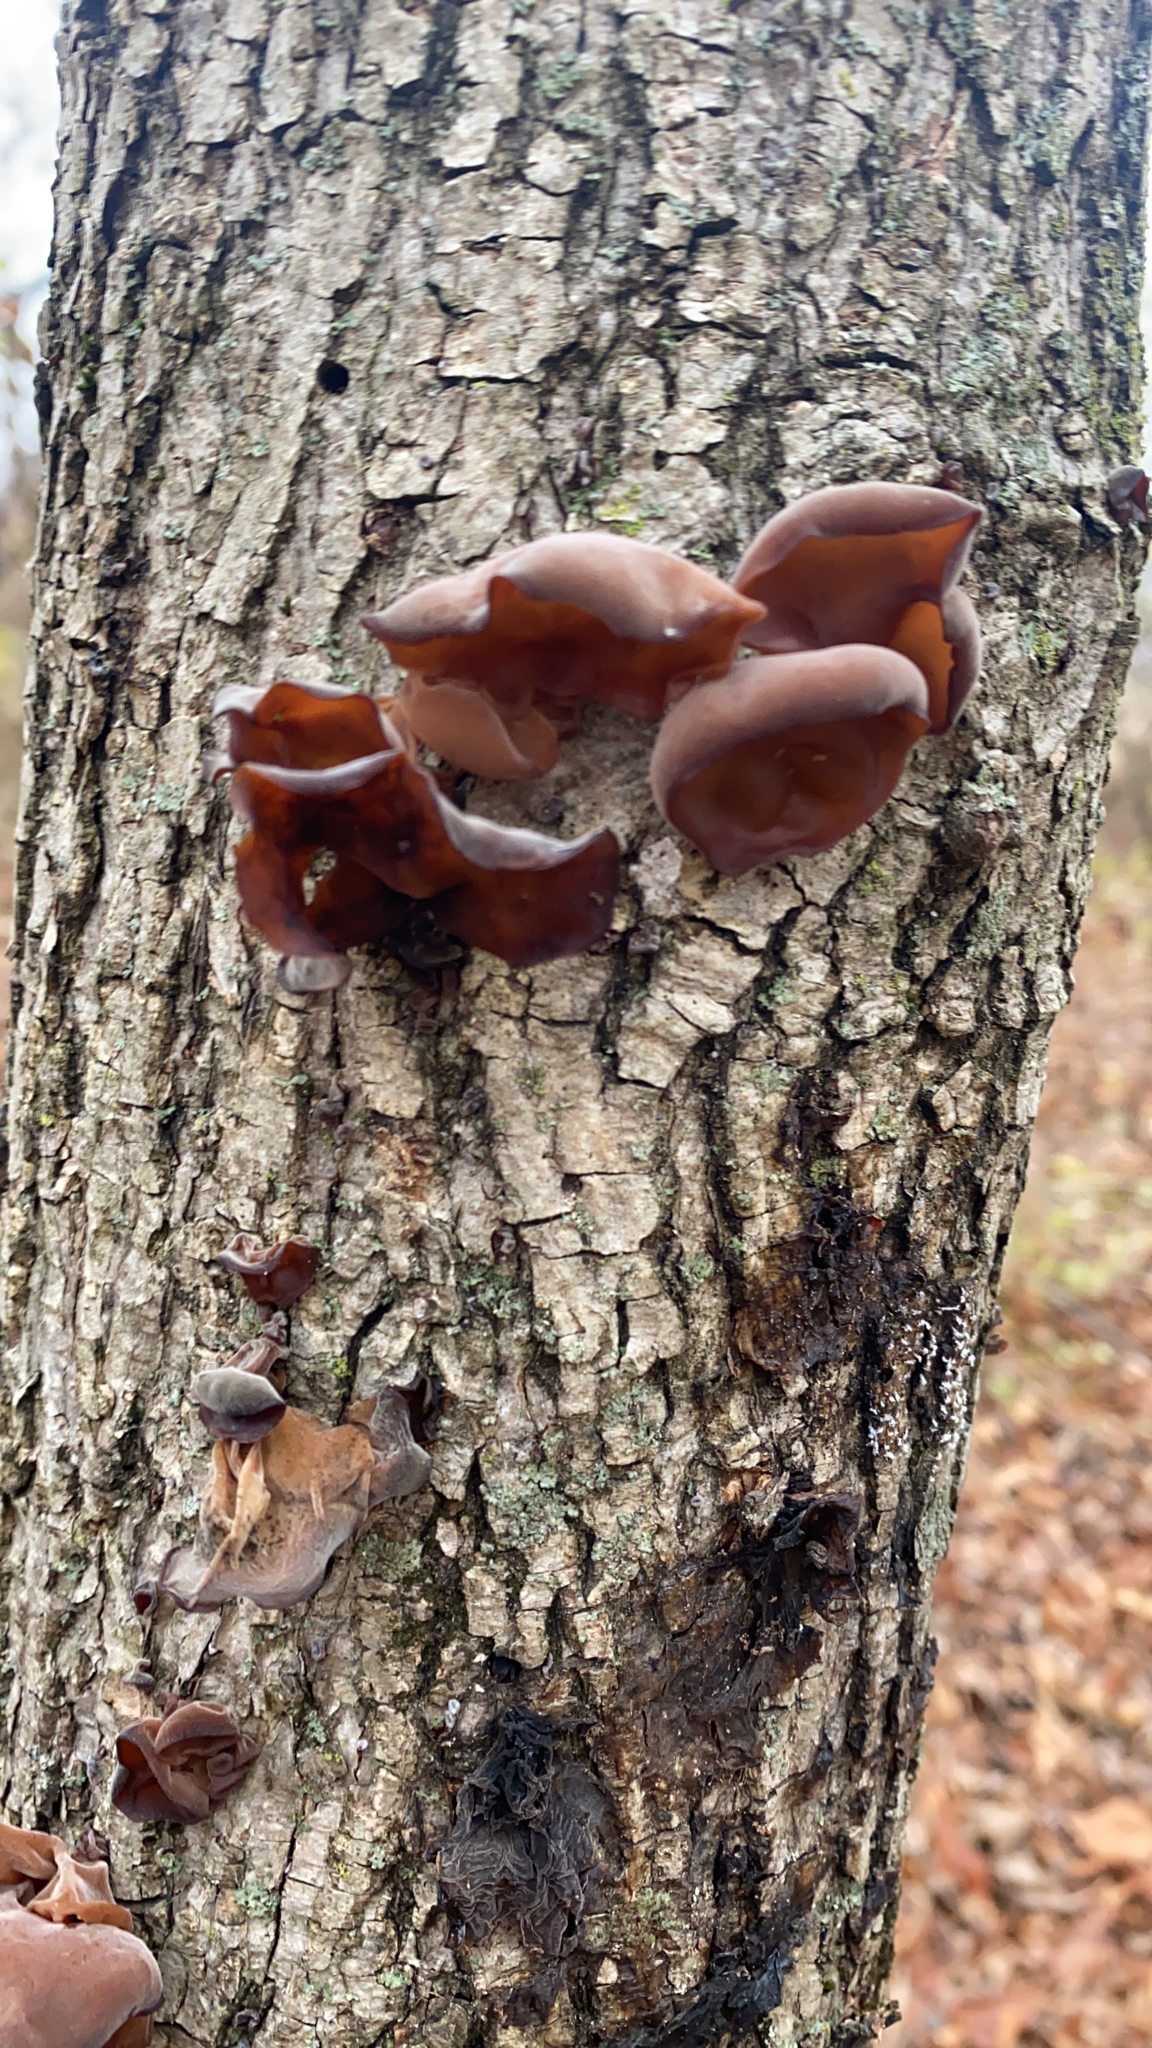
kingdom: Fungi
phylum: Basidiomycota
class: Agaricomycetes
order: Auriculariales
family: Auriculariaceae
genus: Auricularia
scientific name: Auricularia angiospermarum
